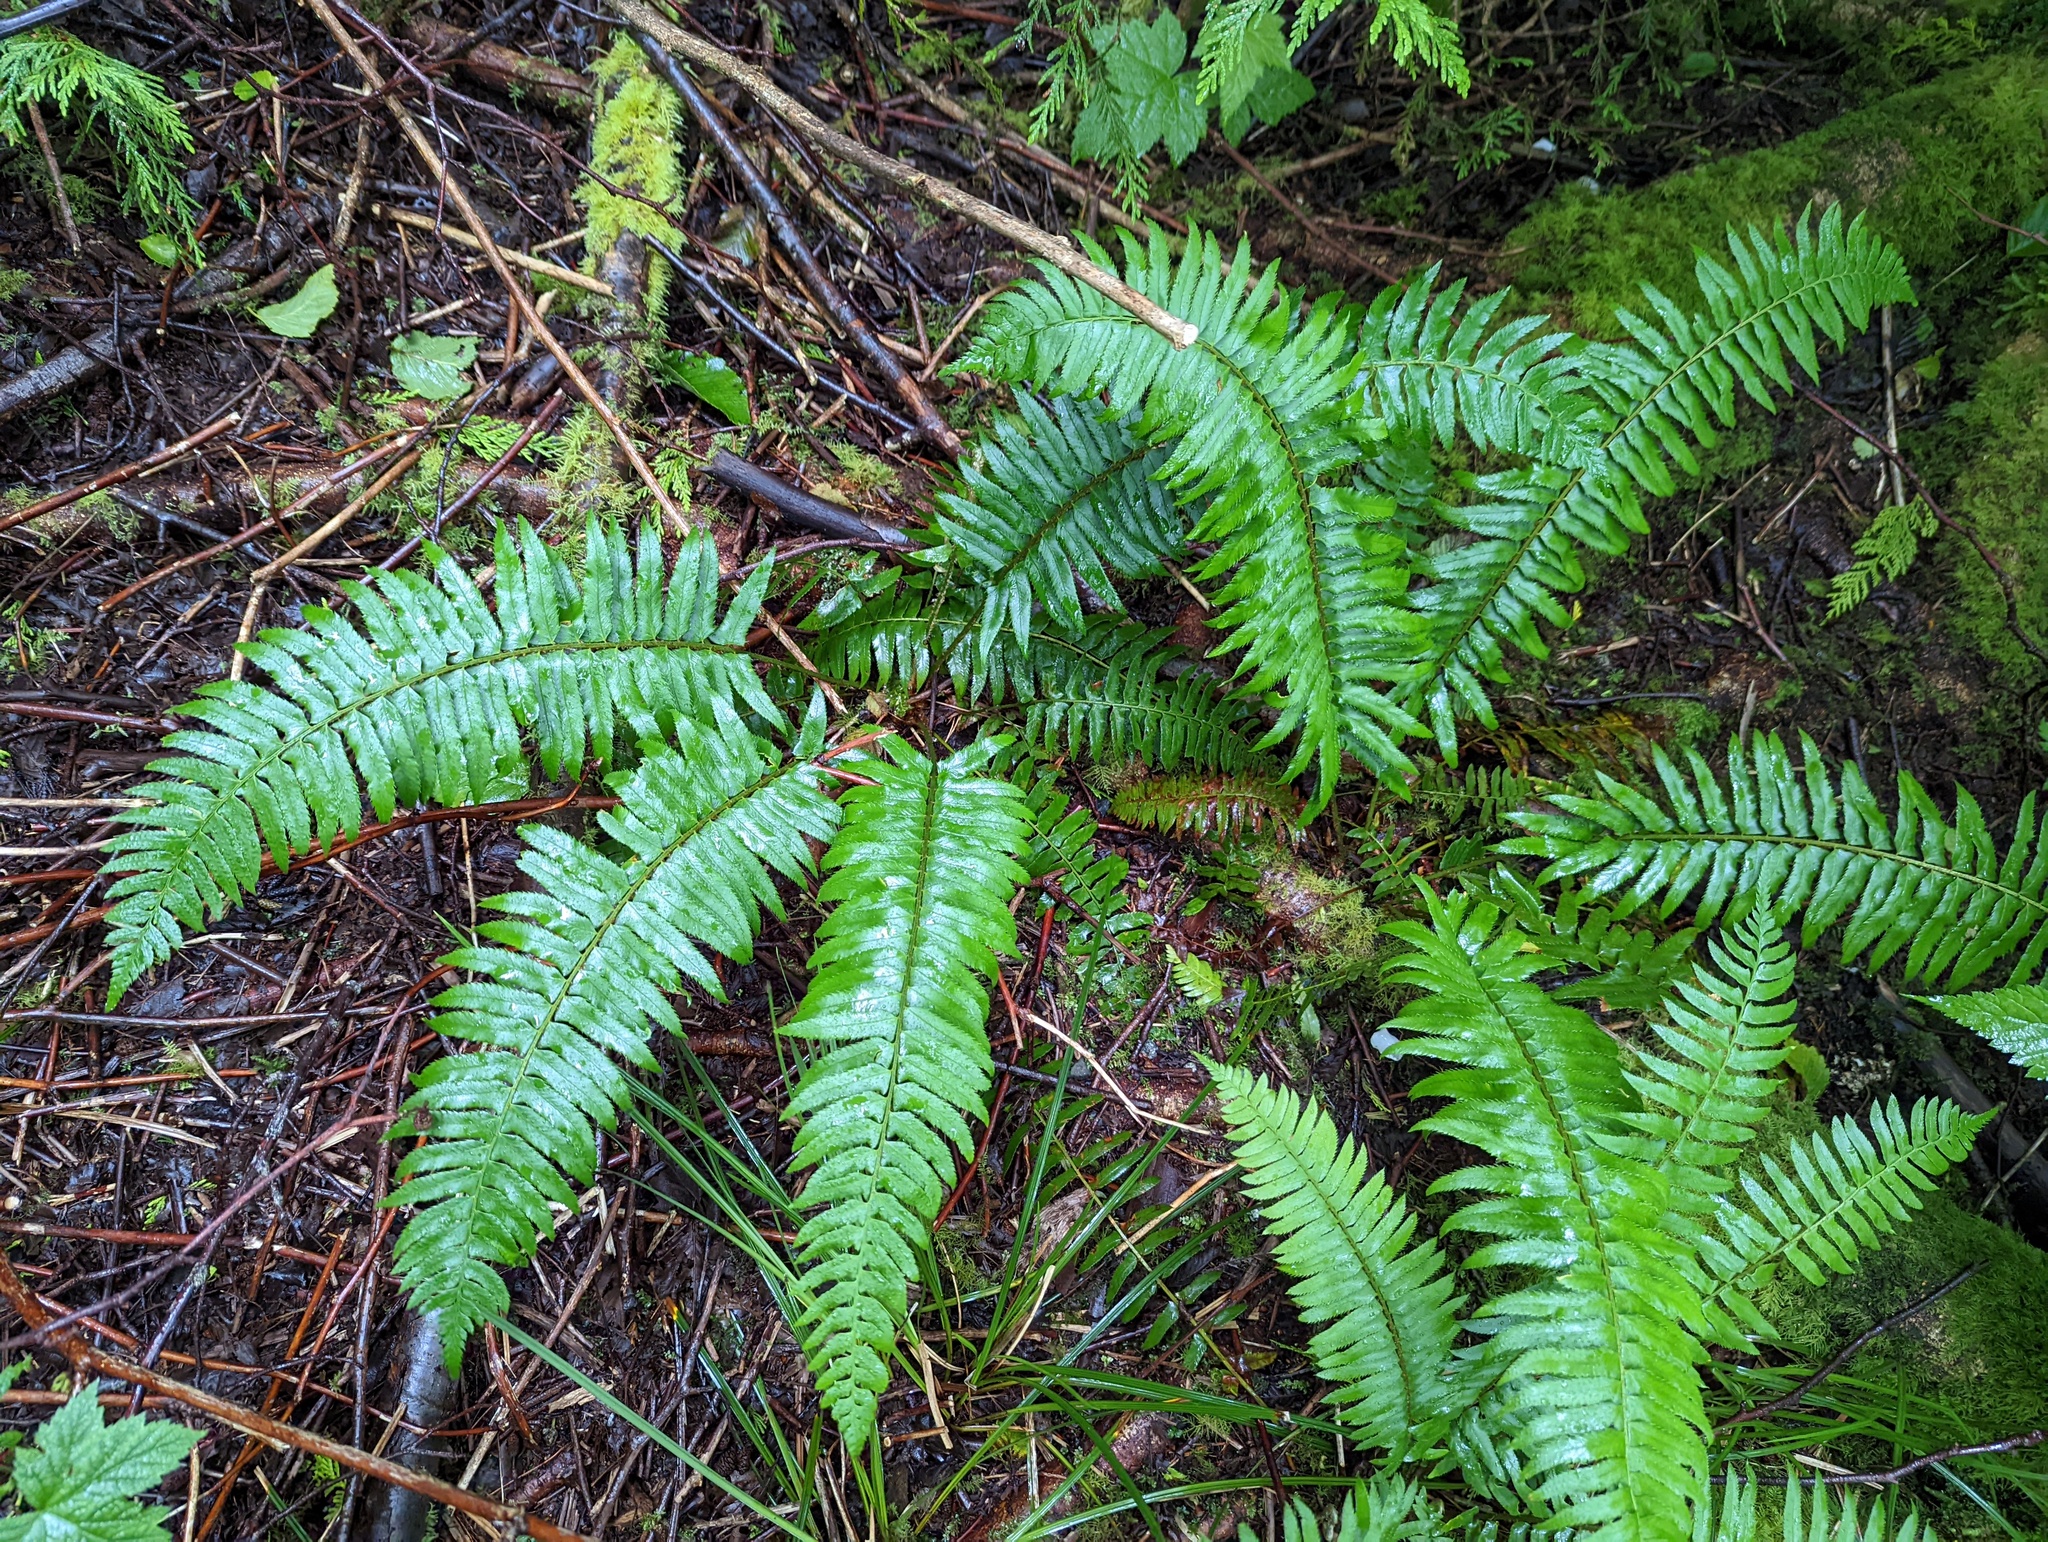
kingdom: Plantae
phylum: Tracheophyta
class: Polypodiopsida
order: Polypodiales
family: Dryopteridaceae
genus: Polystichum
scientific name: Polystichum munitum
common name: Western sword-fern
